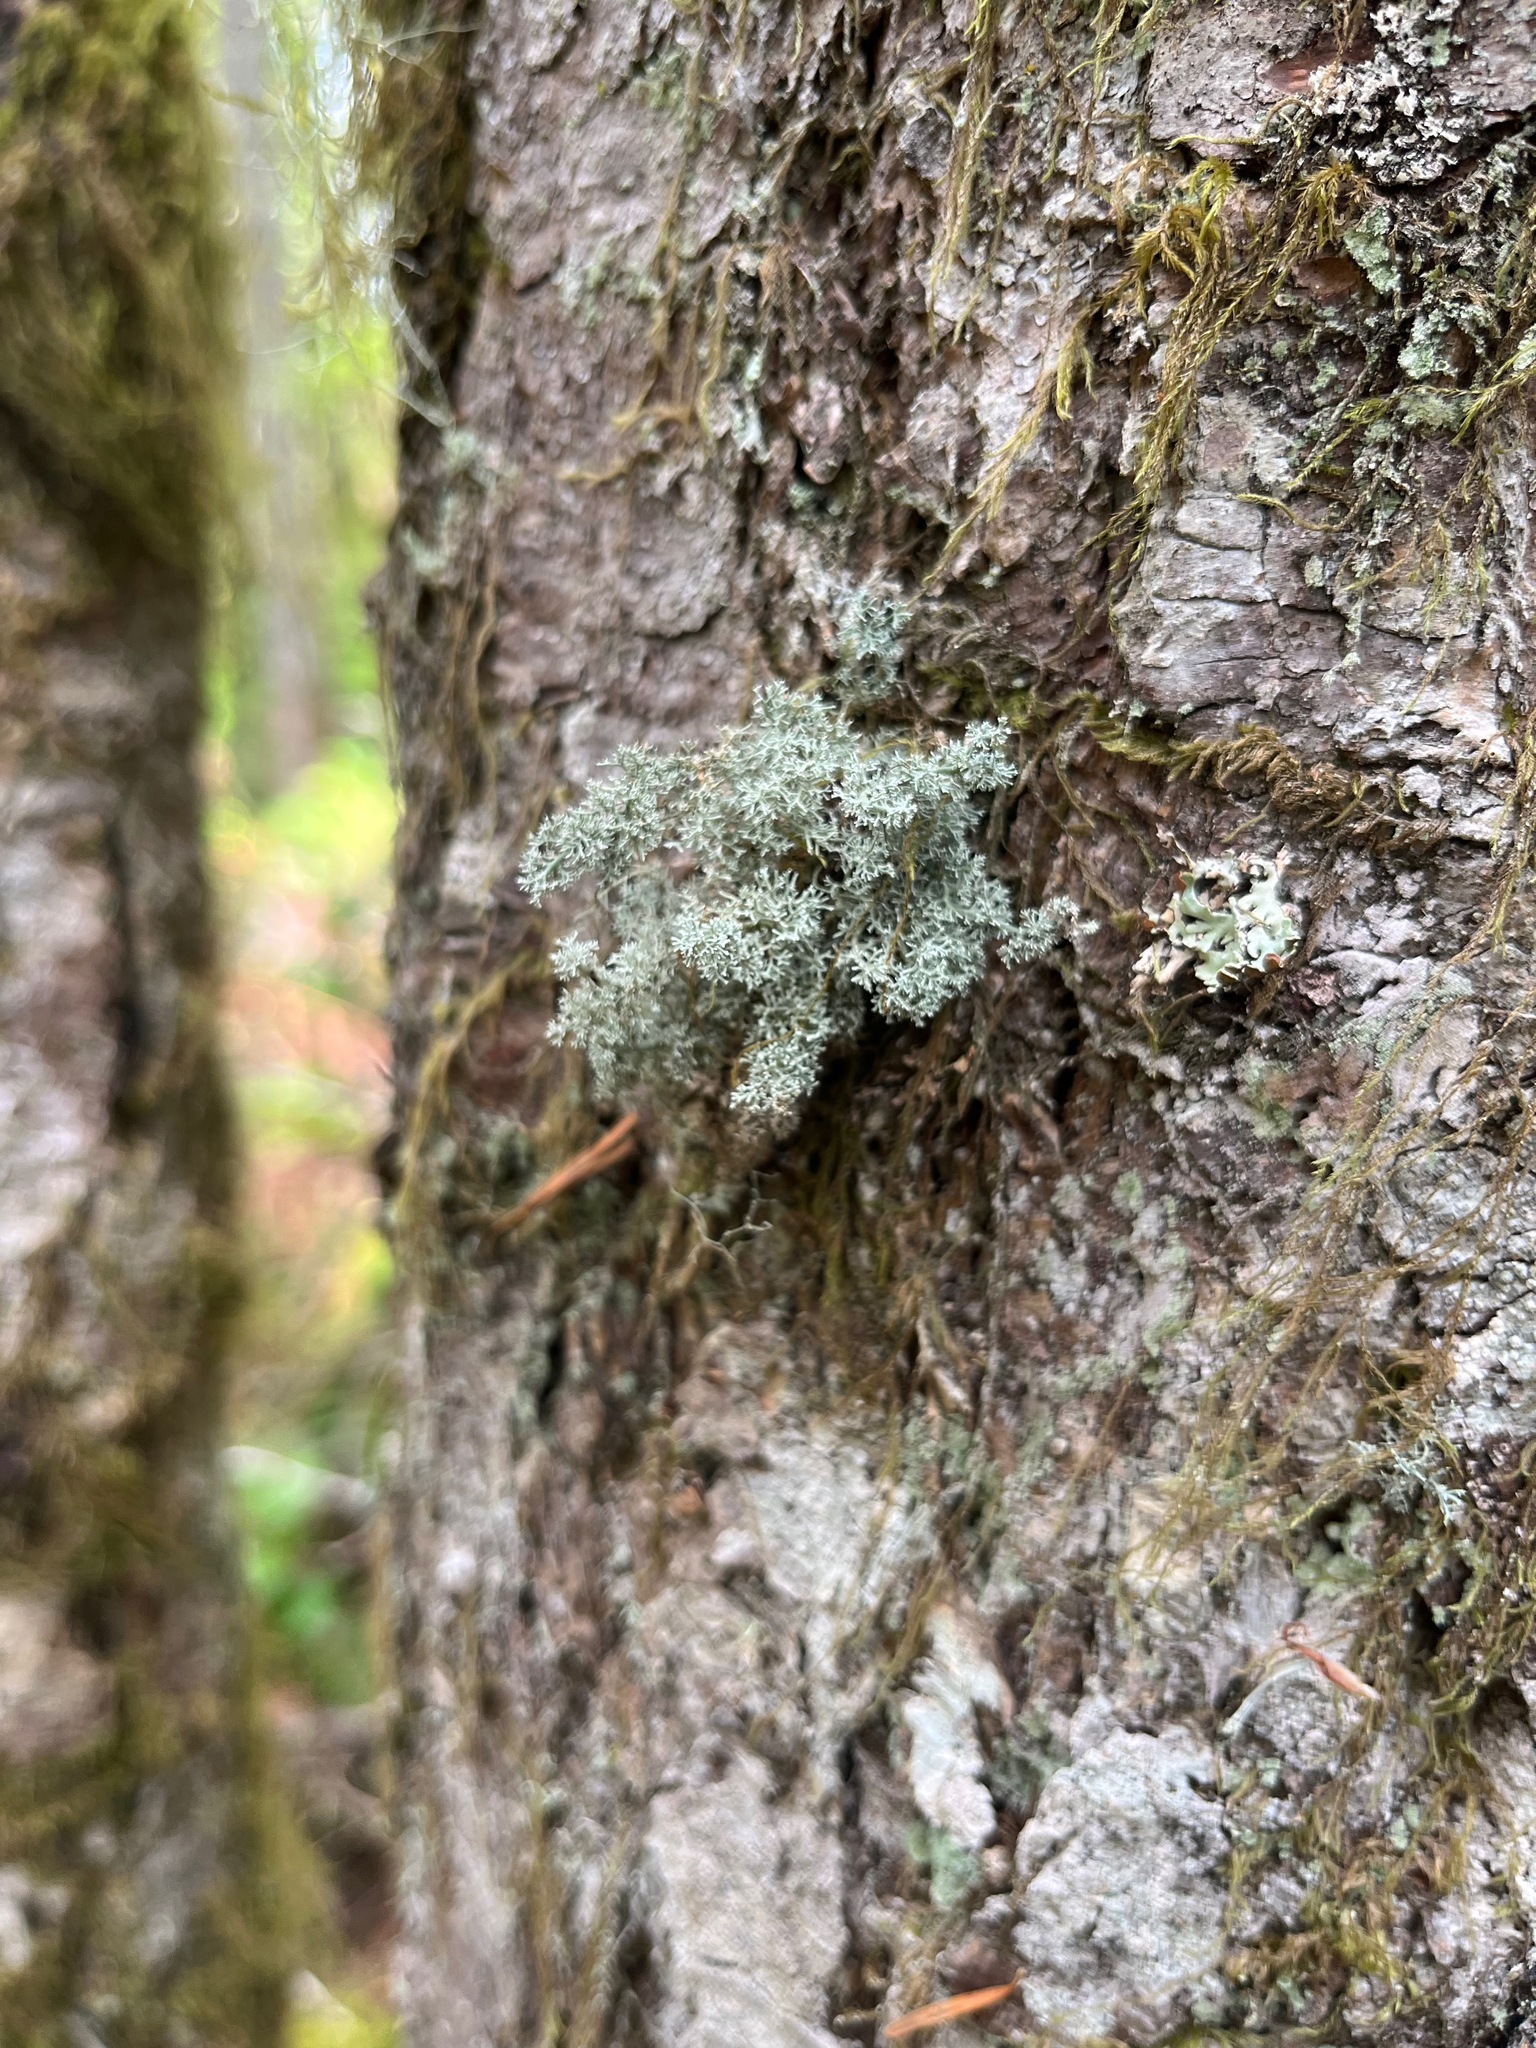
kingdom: Fungi
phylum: Ascomycota
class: Lecanoromycetes
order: Lecanorales
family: Sphaerophoraceae
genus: Sphaerophorus
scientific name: Sphaerophorus globosus
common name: Globe ball lichen
